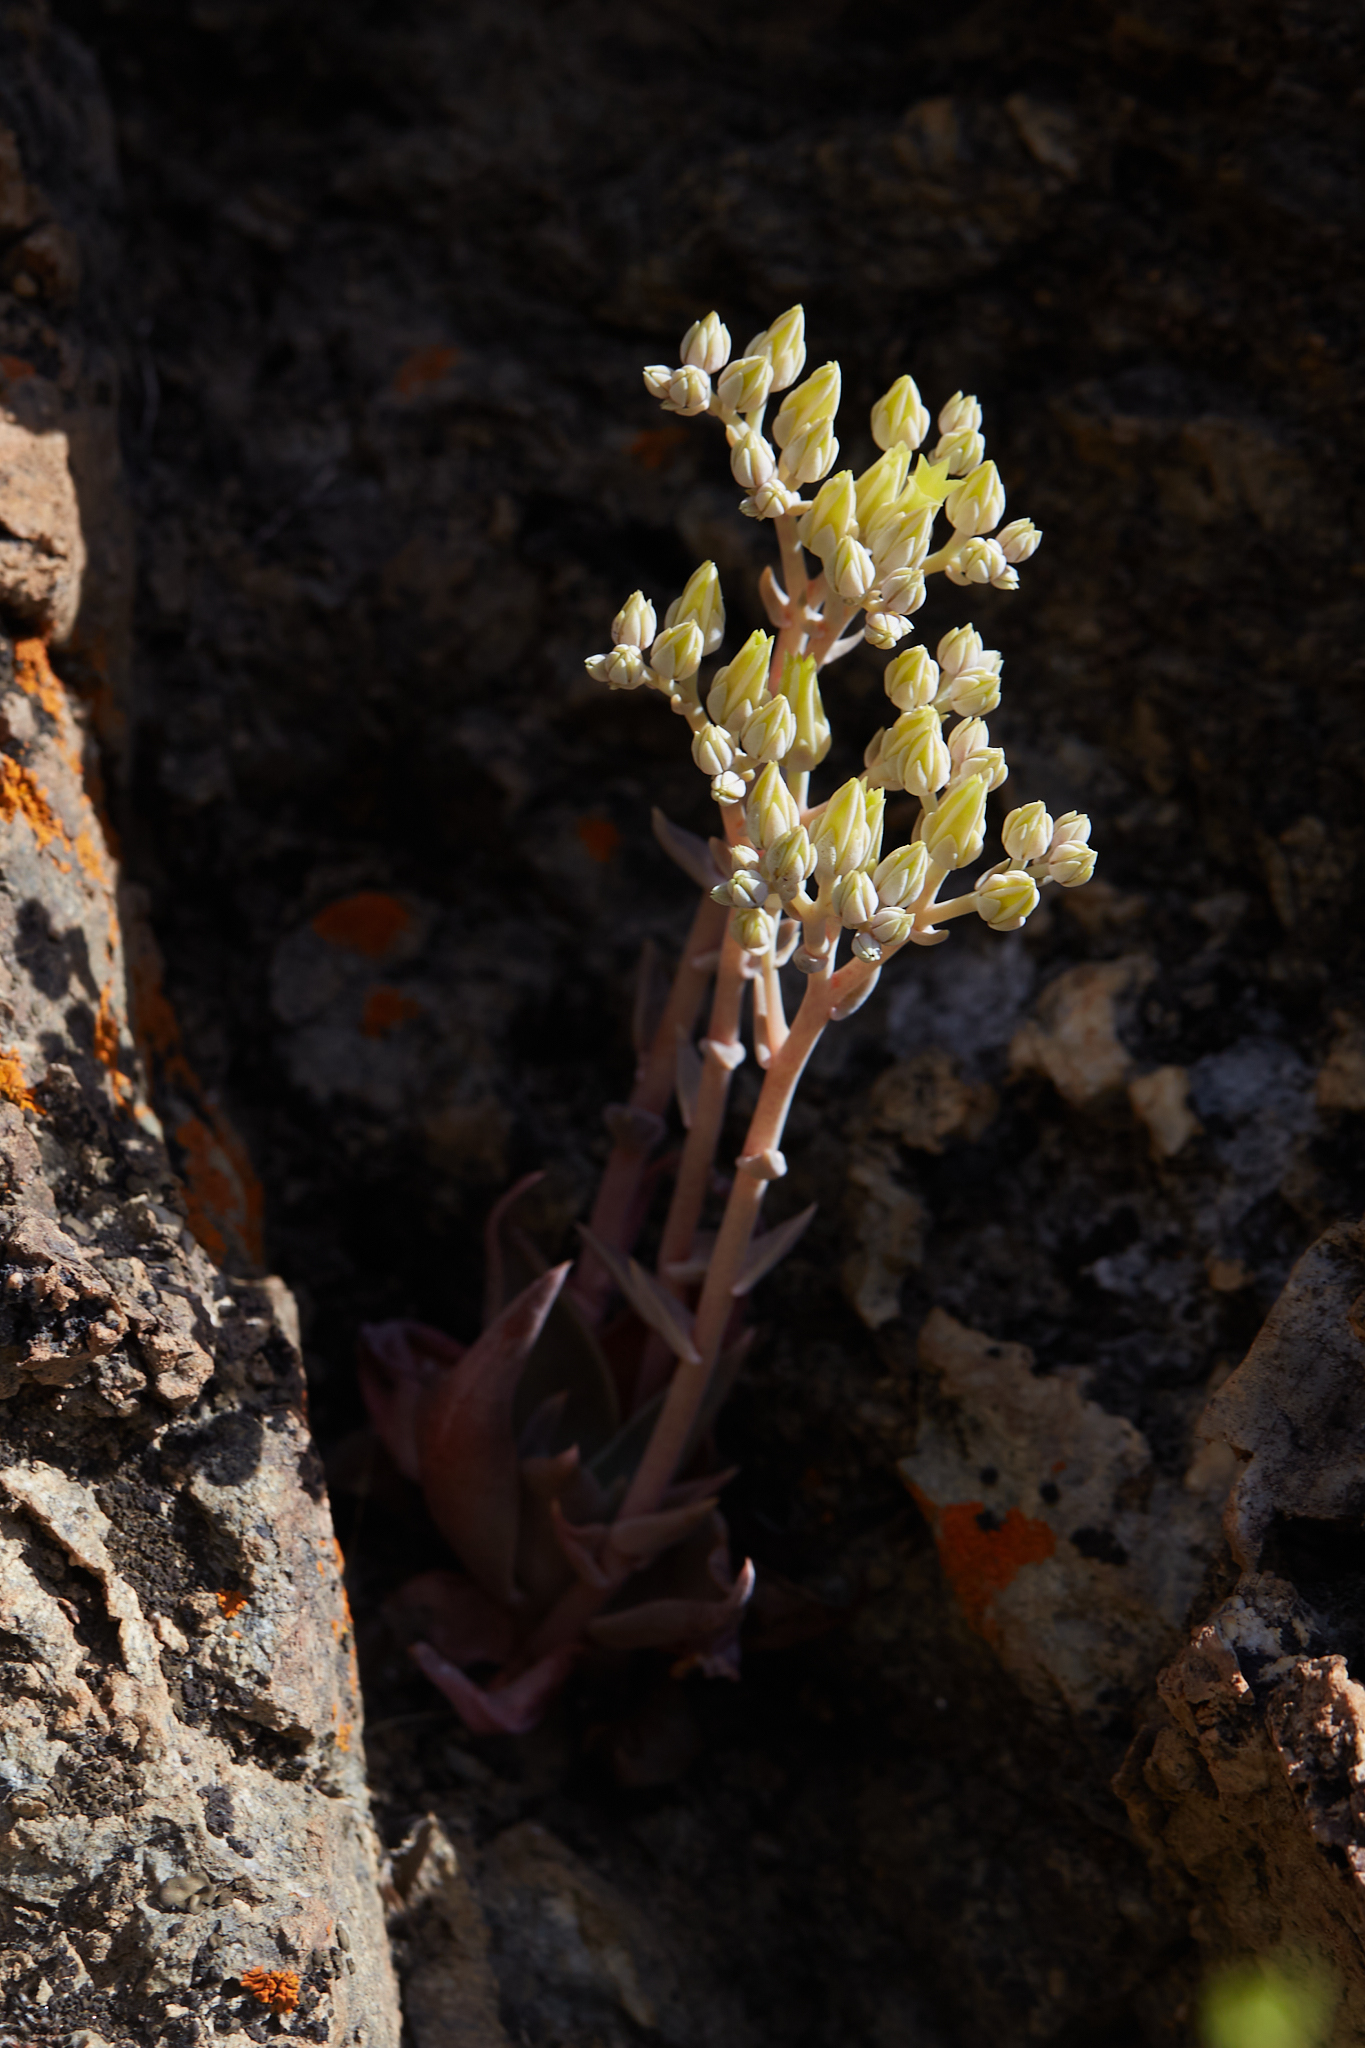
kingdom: Plantae
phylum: Tracheophyta
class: Magnoliopsida
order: Saxifragales
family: Crassulaceae
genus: Dudleya
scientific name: Dudleya cymosa
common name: Canyon dudleya
